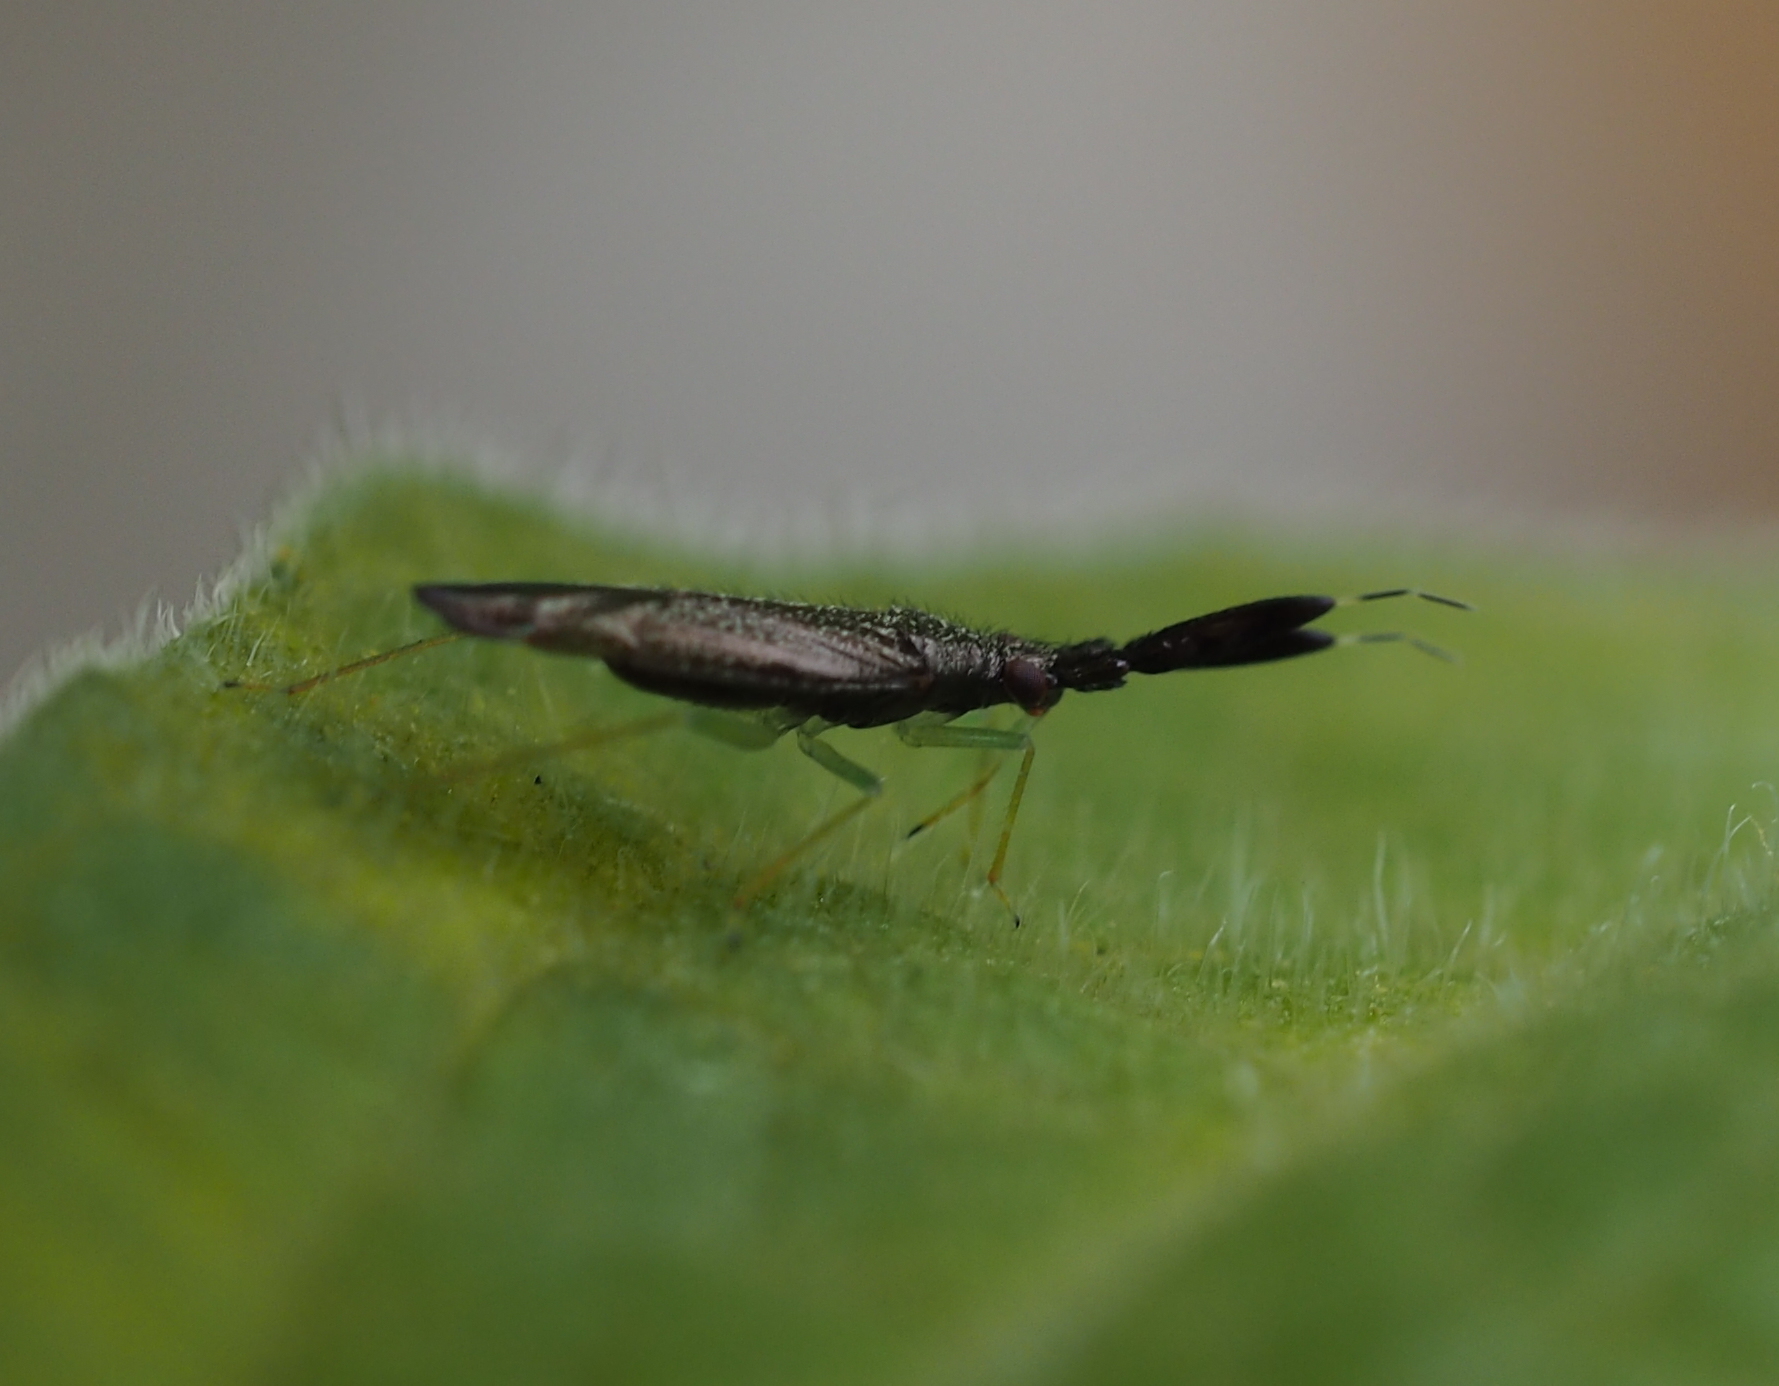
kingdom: Animalia
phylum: Arthropoda
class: Insecta
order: Hemiptera
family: Miridae
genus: Heterotoma
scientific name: Heterotoma planicornis
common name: Plant bug
